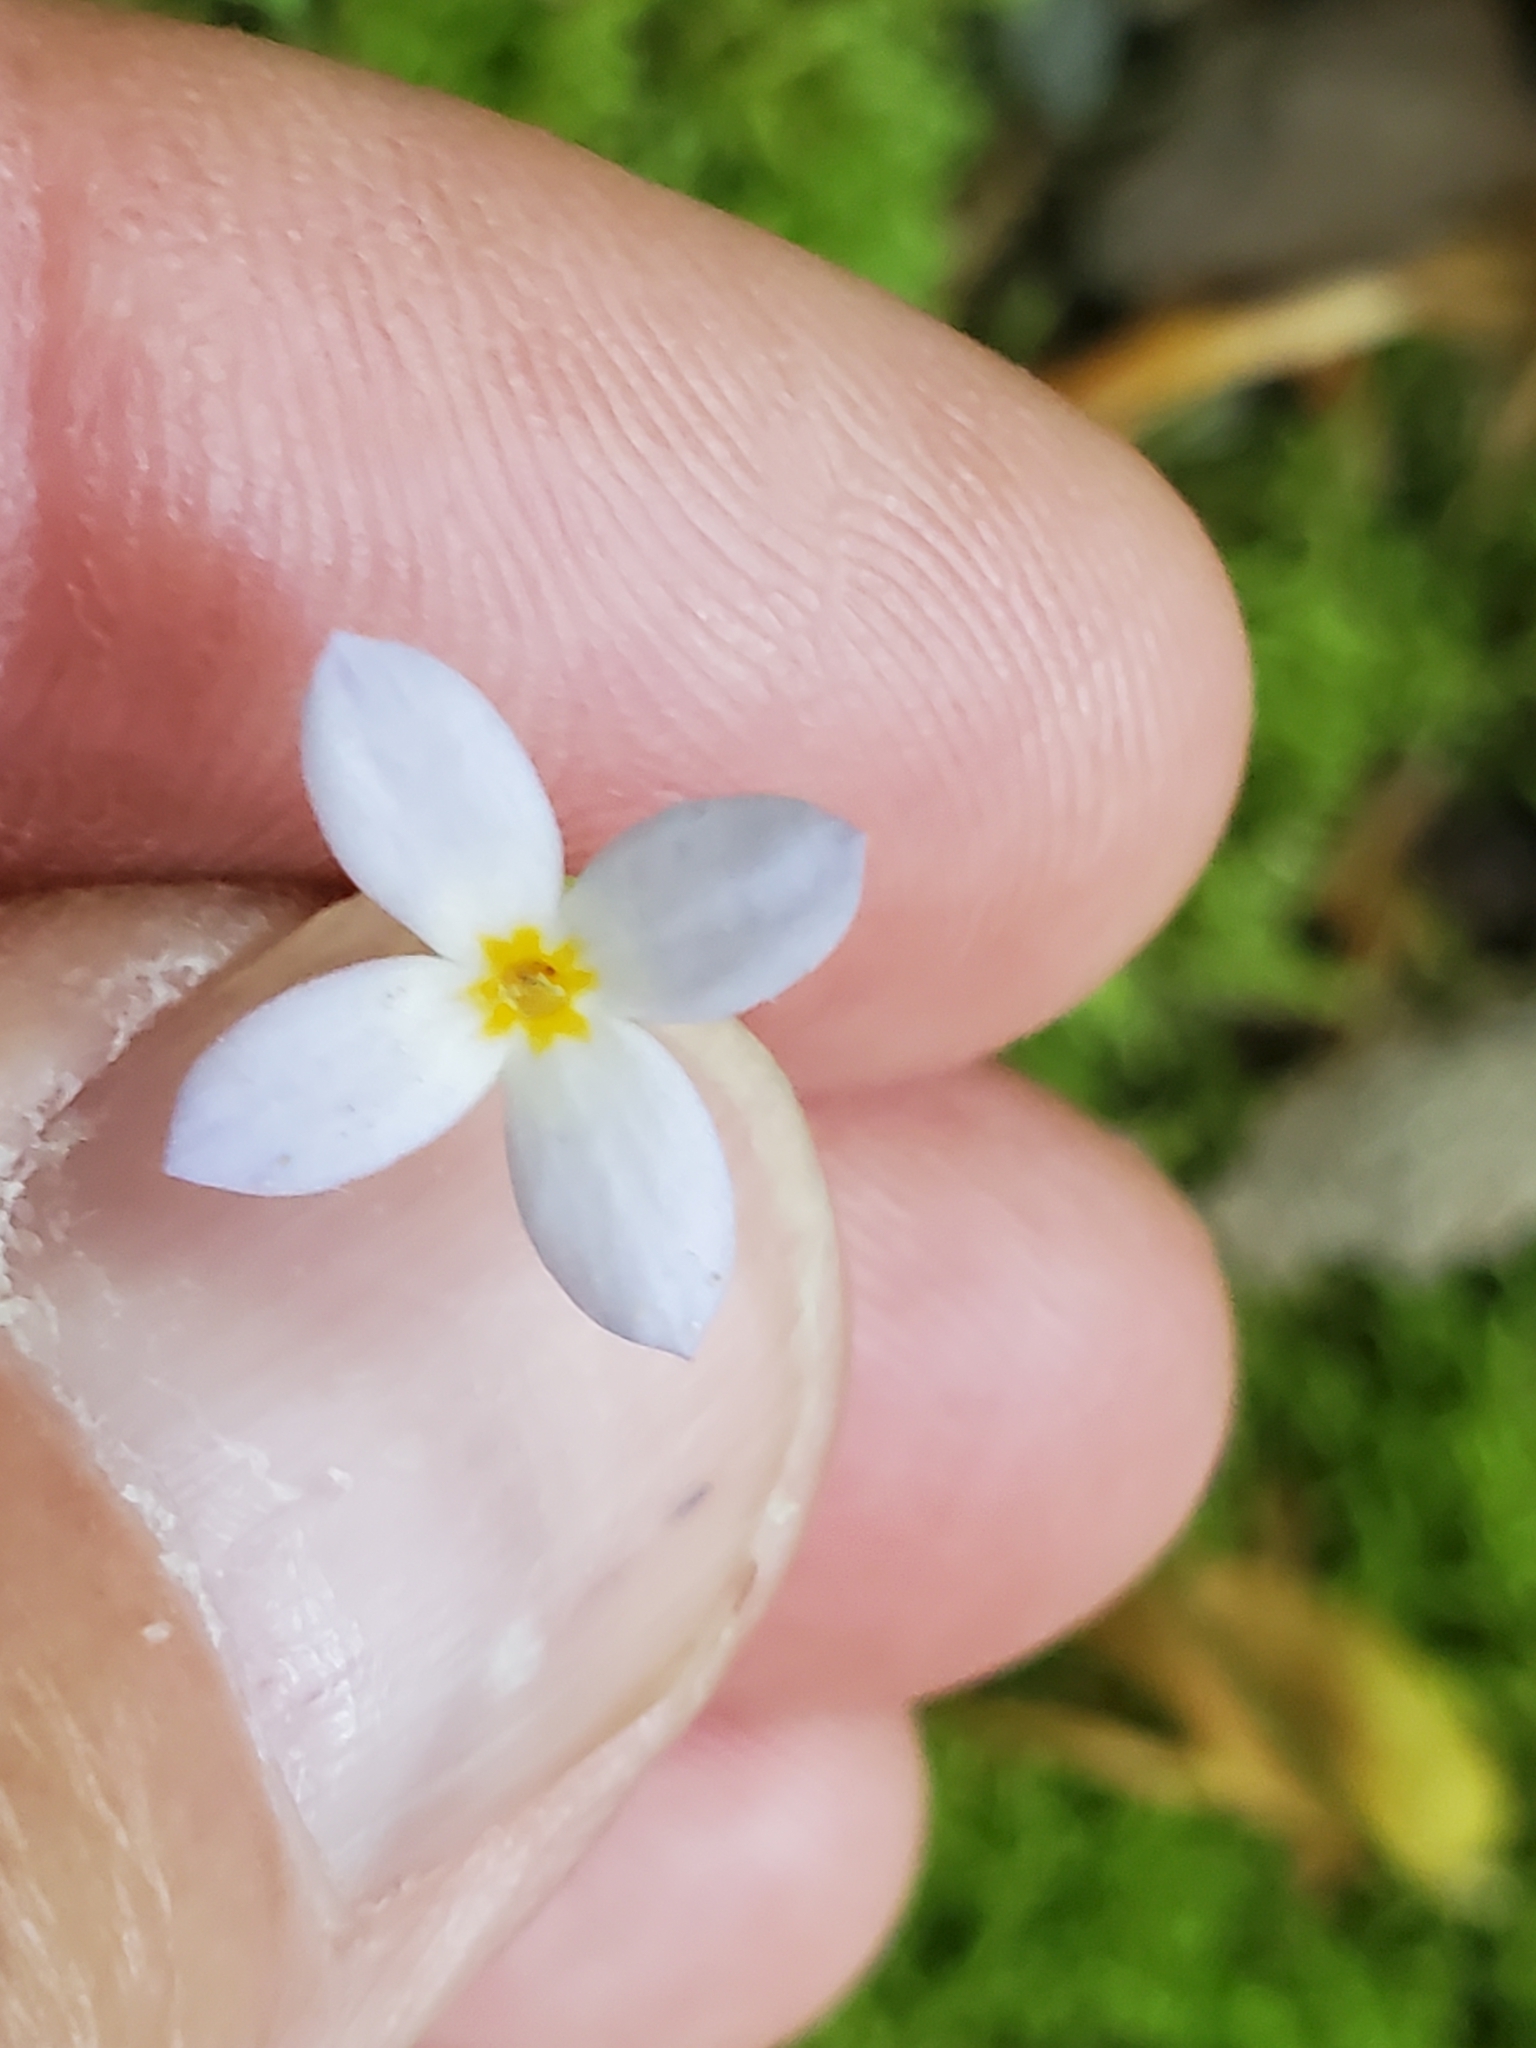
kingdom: Plantae
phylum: Tracheophyta
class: Magnoliopsida
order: Gentianales
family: Rubiaceae
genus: Houstonia
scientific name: Houstonia caerulea
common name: Bluets
